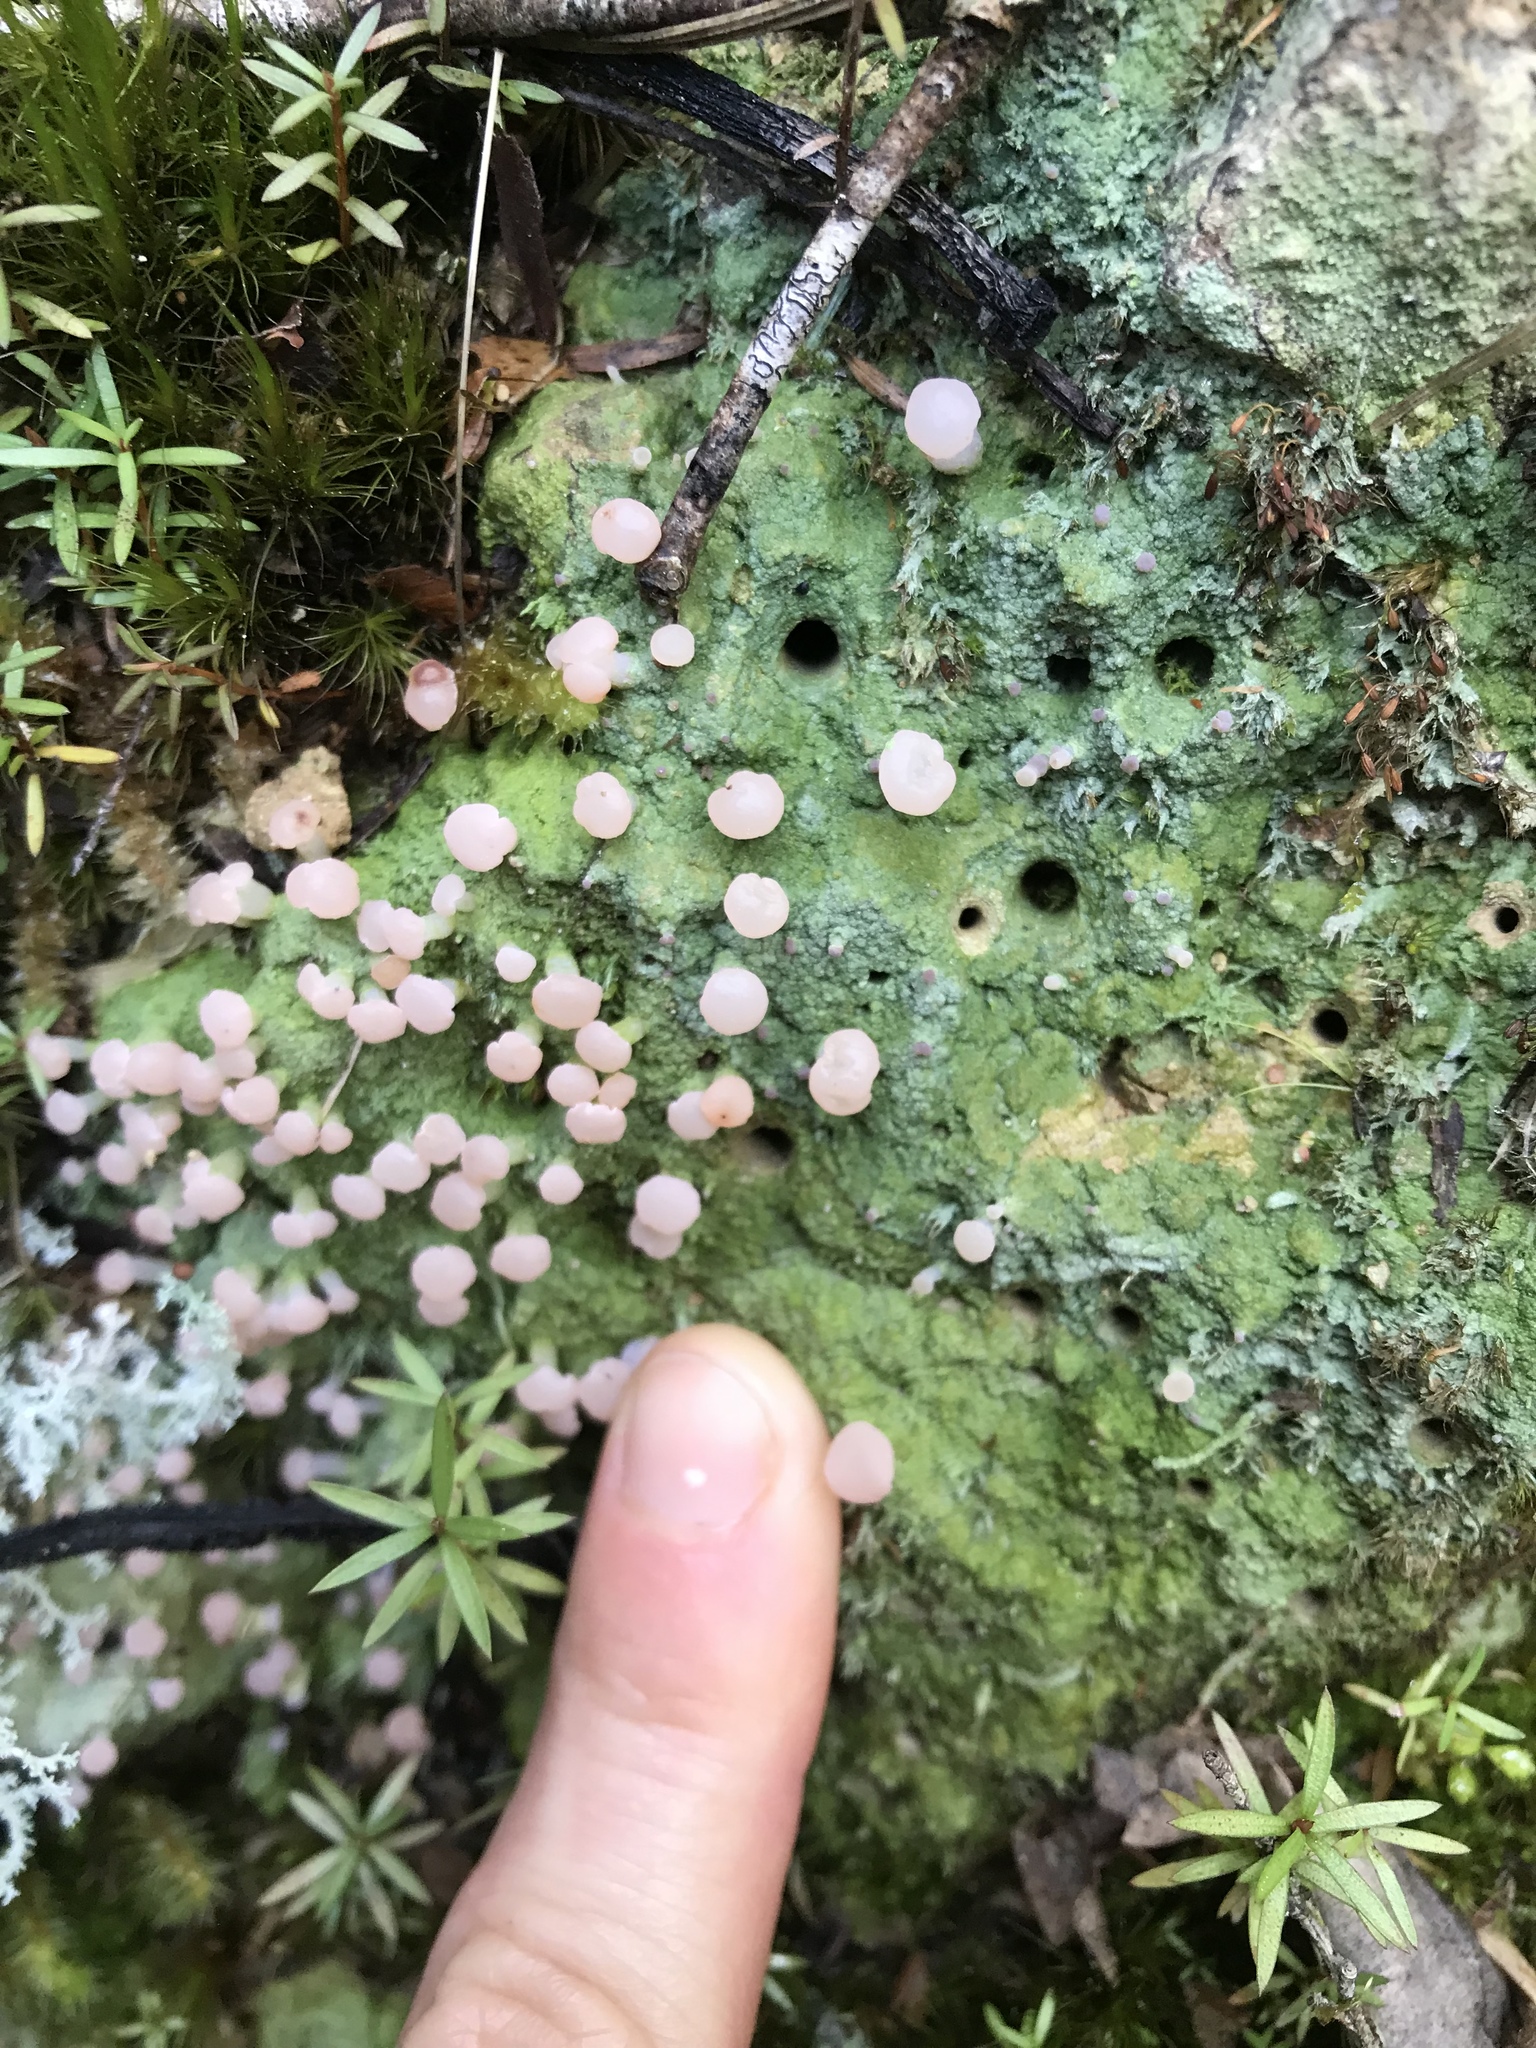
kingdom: Fungi
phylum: Ascomycota
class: Lecanoromycetes
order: Baeomycetales
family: Baeomycetaceae
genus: Baeomyces
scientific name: Baeomyces heteromorphus
